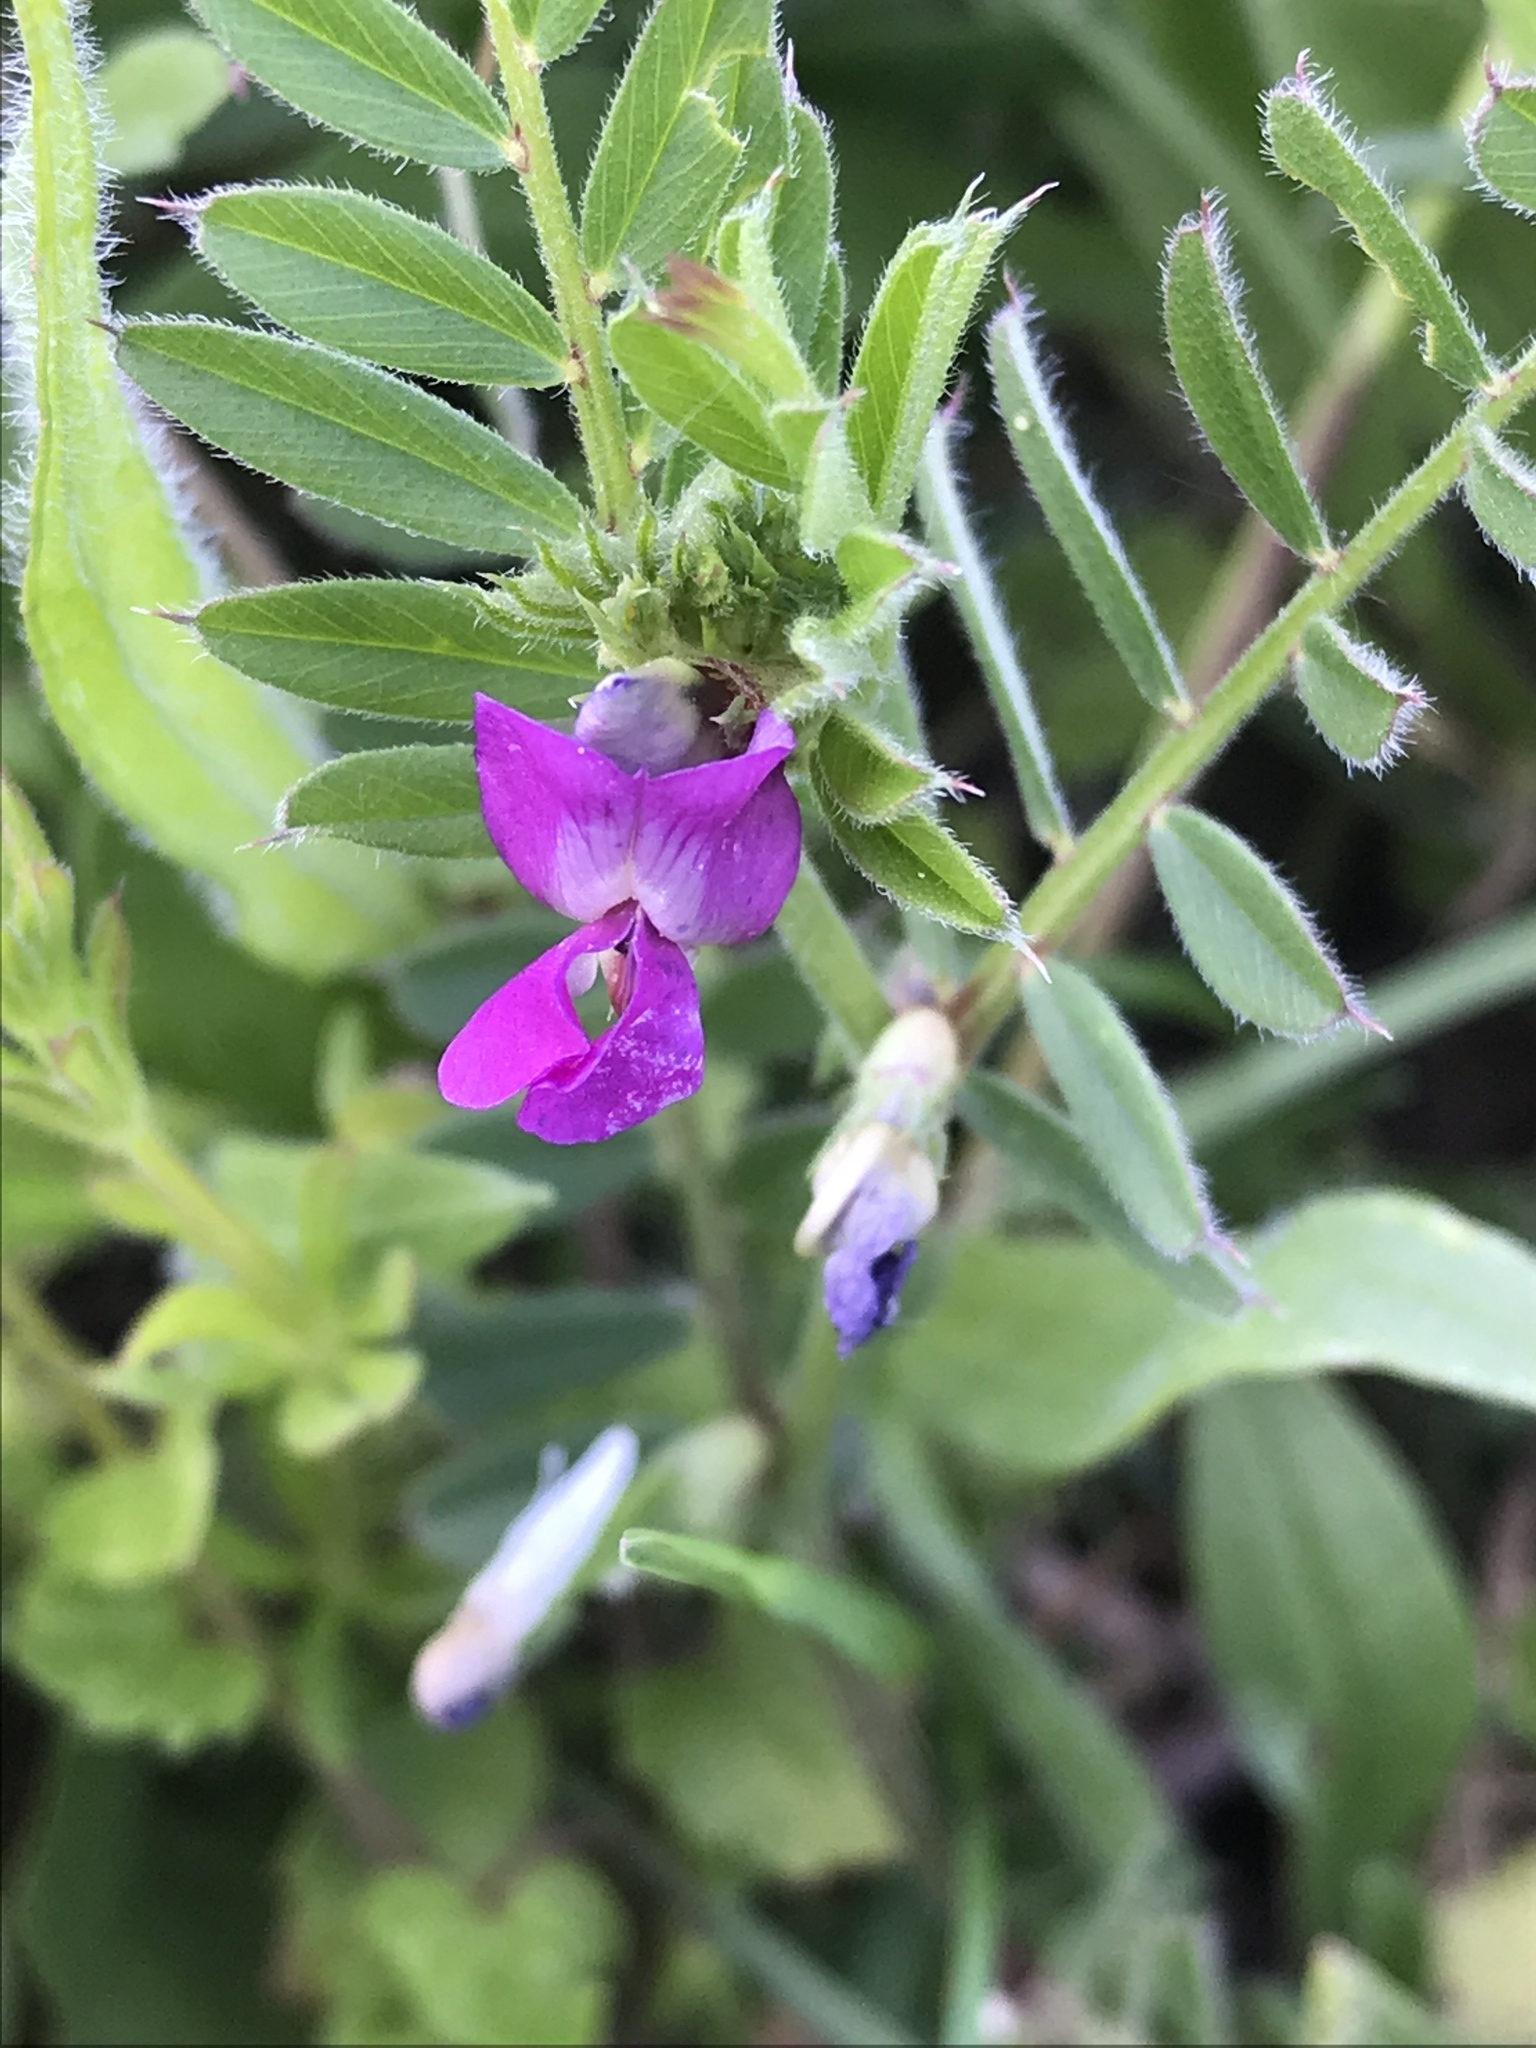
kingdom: Plantae
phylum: Tracheophyta
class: Magnoliopsida
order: Fabales
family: Fabaceae
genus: Vicia
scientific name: Vicia sativa
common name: Garden vetch
